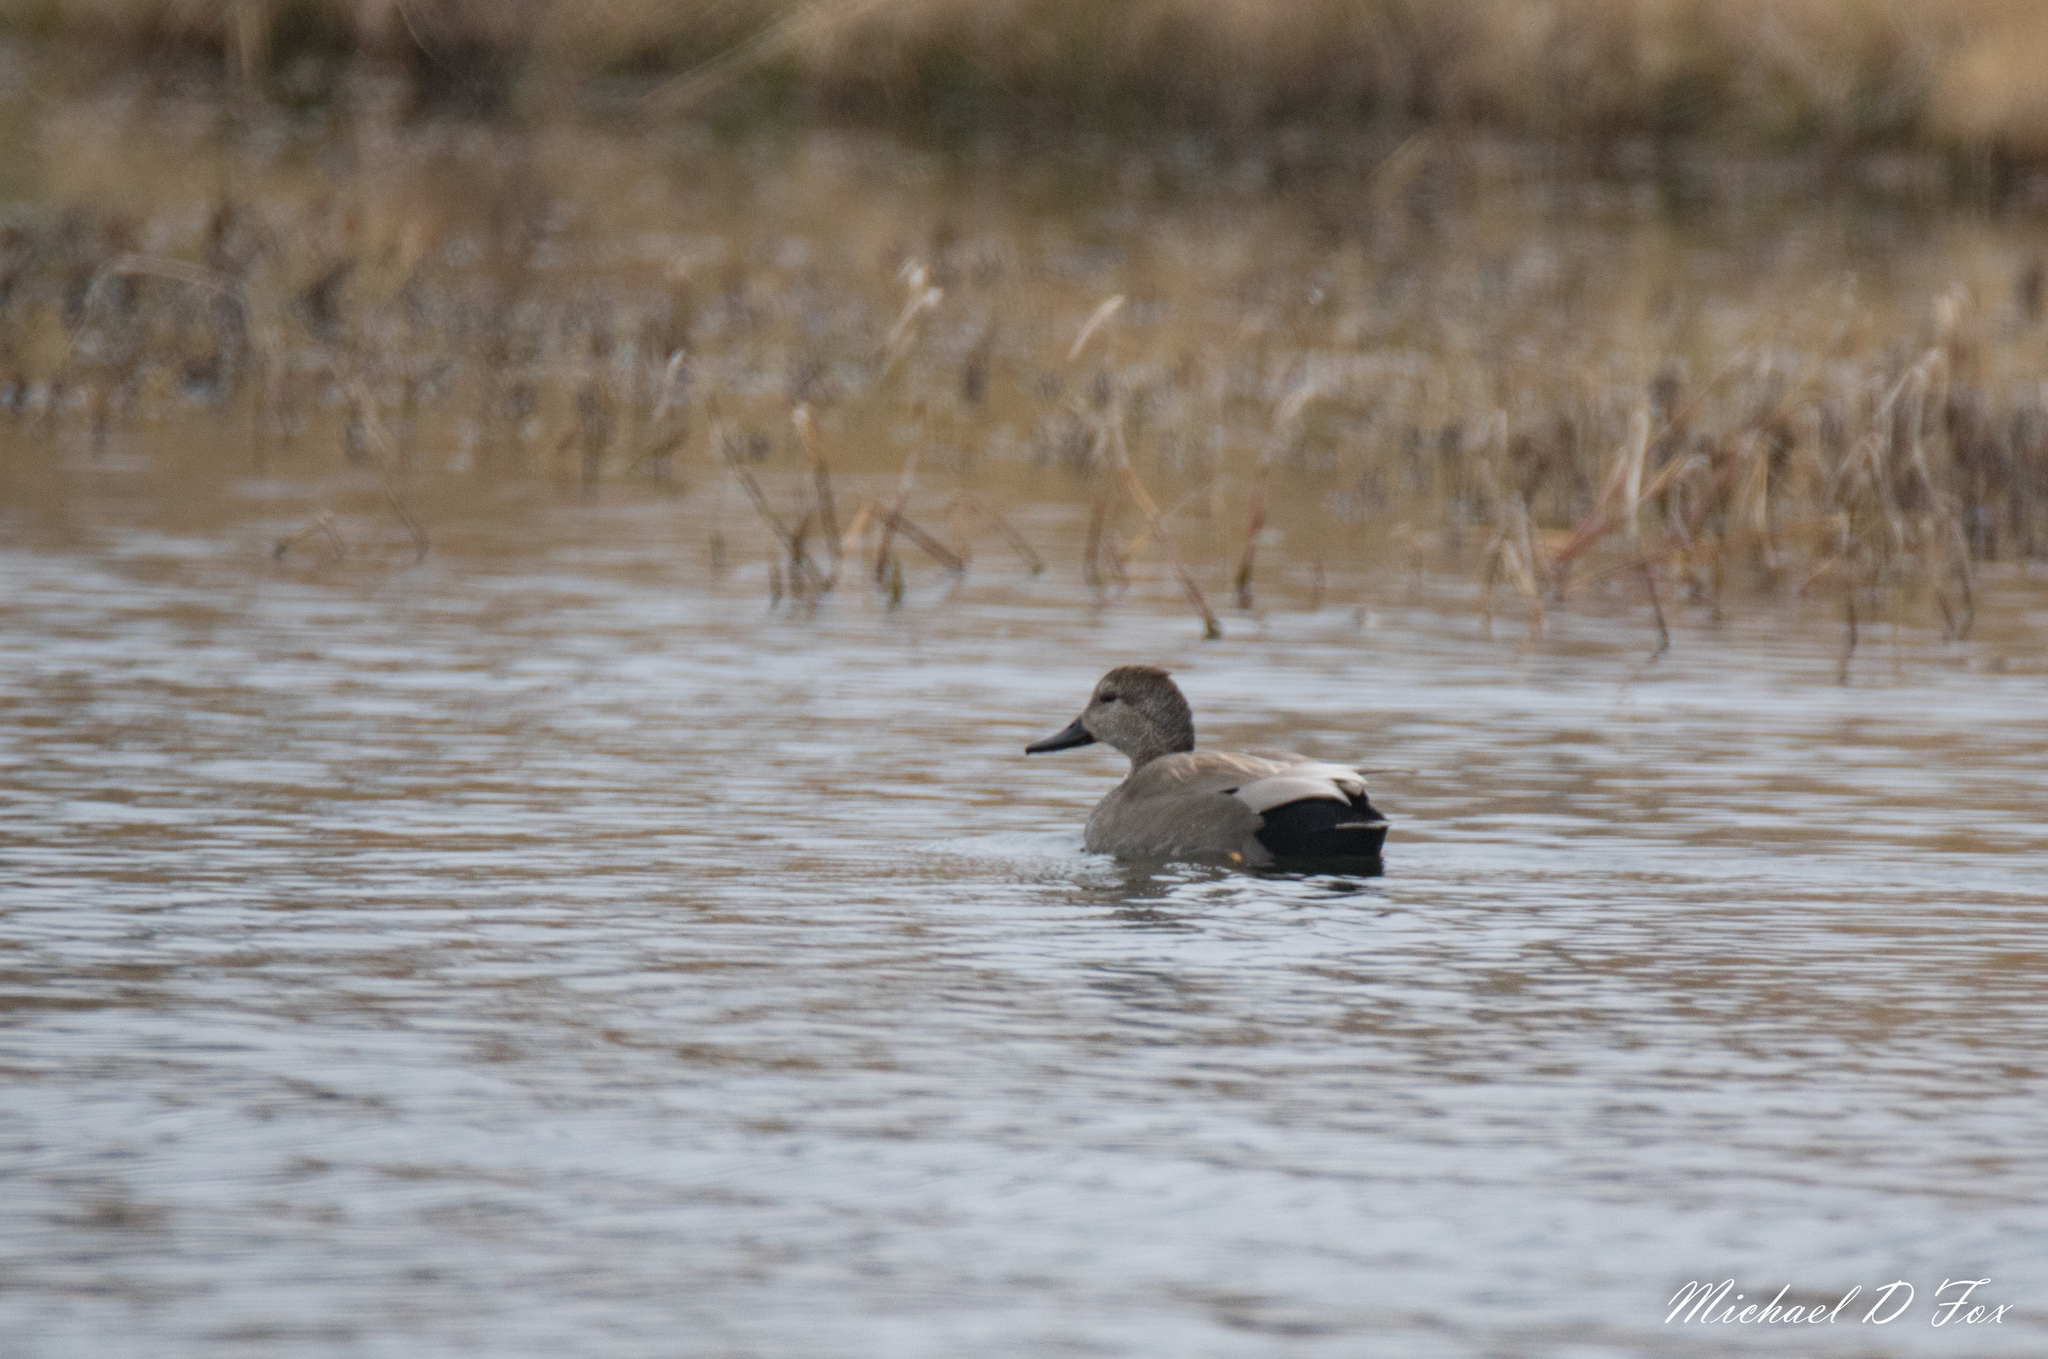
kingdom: Animalia
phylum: Chordata
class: Aves
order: Anseriformes
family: Anatidae
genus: Mareca
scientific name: Mareca strepera
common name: Gadwall
